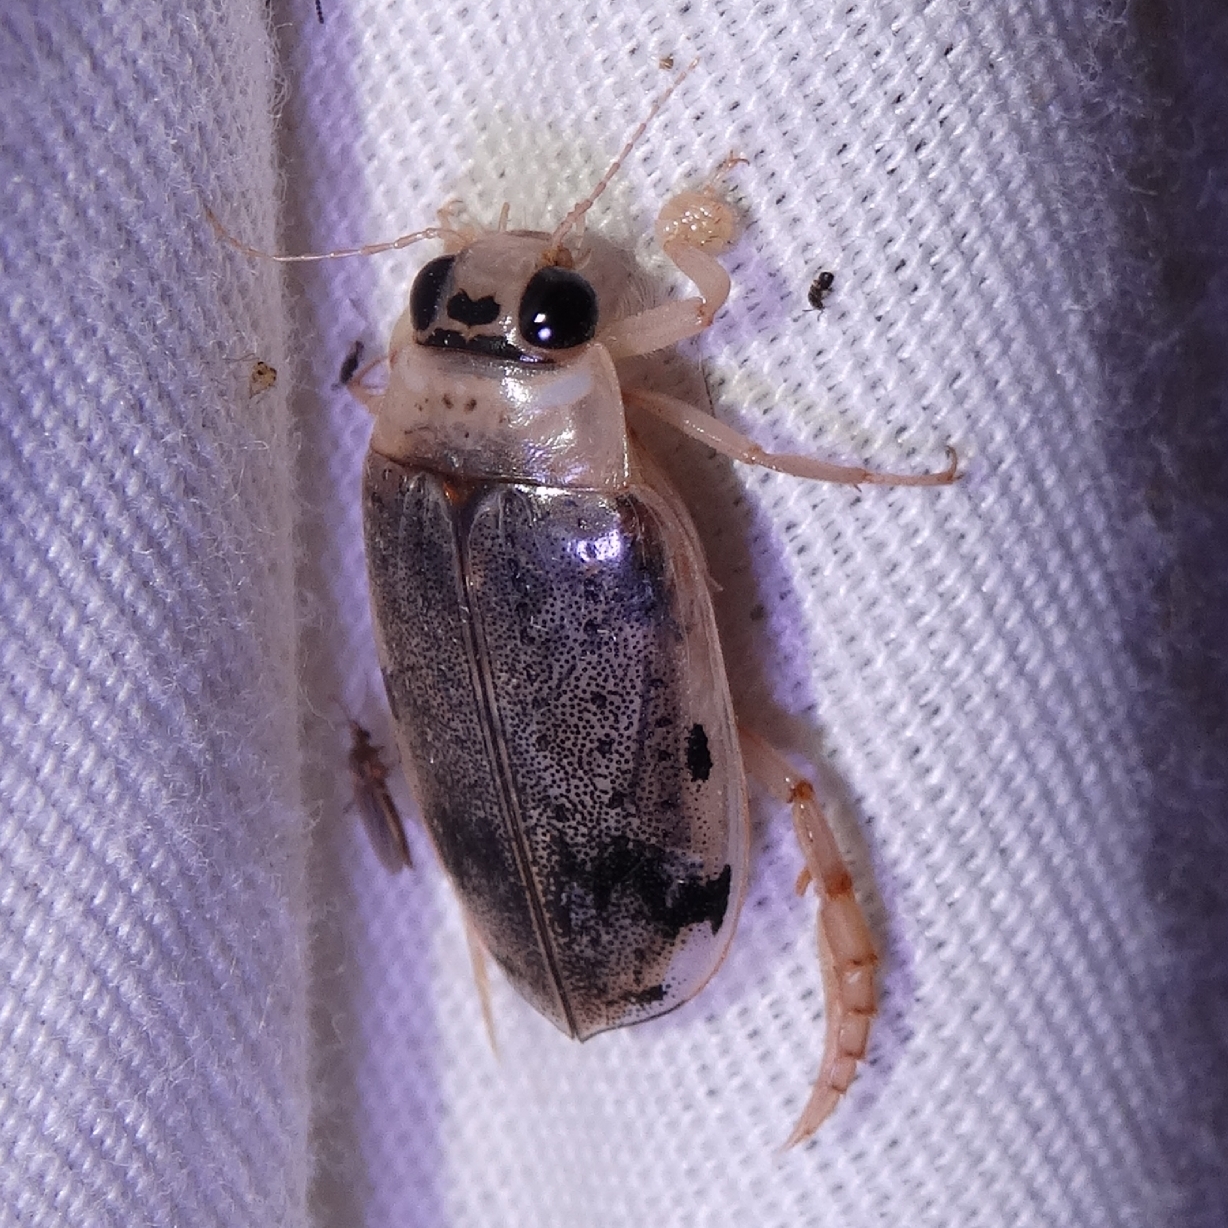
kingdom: Animalia
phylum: Arthropoda
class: Insecta
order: Coleoptera
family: Dytiscidae
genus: Eretes
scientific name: Eretes sticticus
